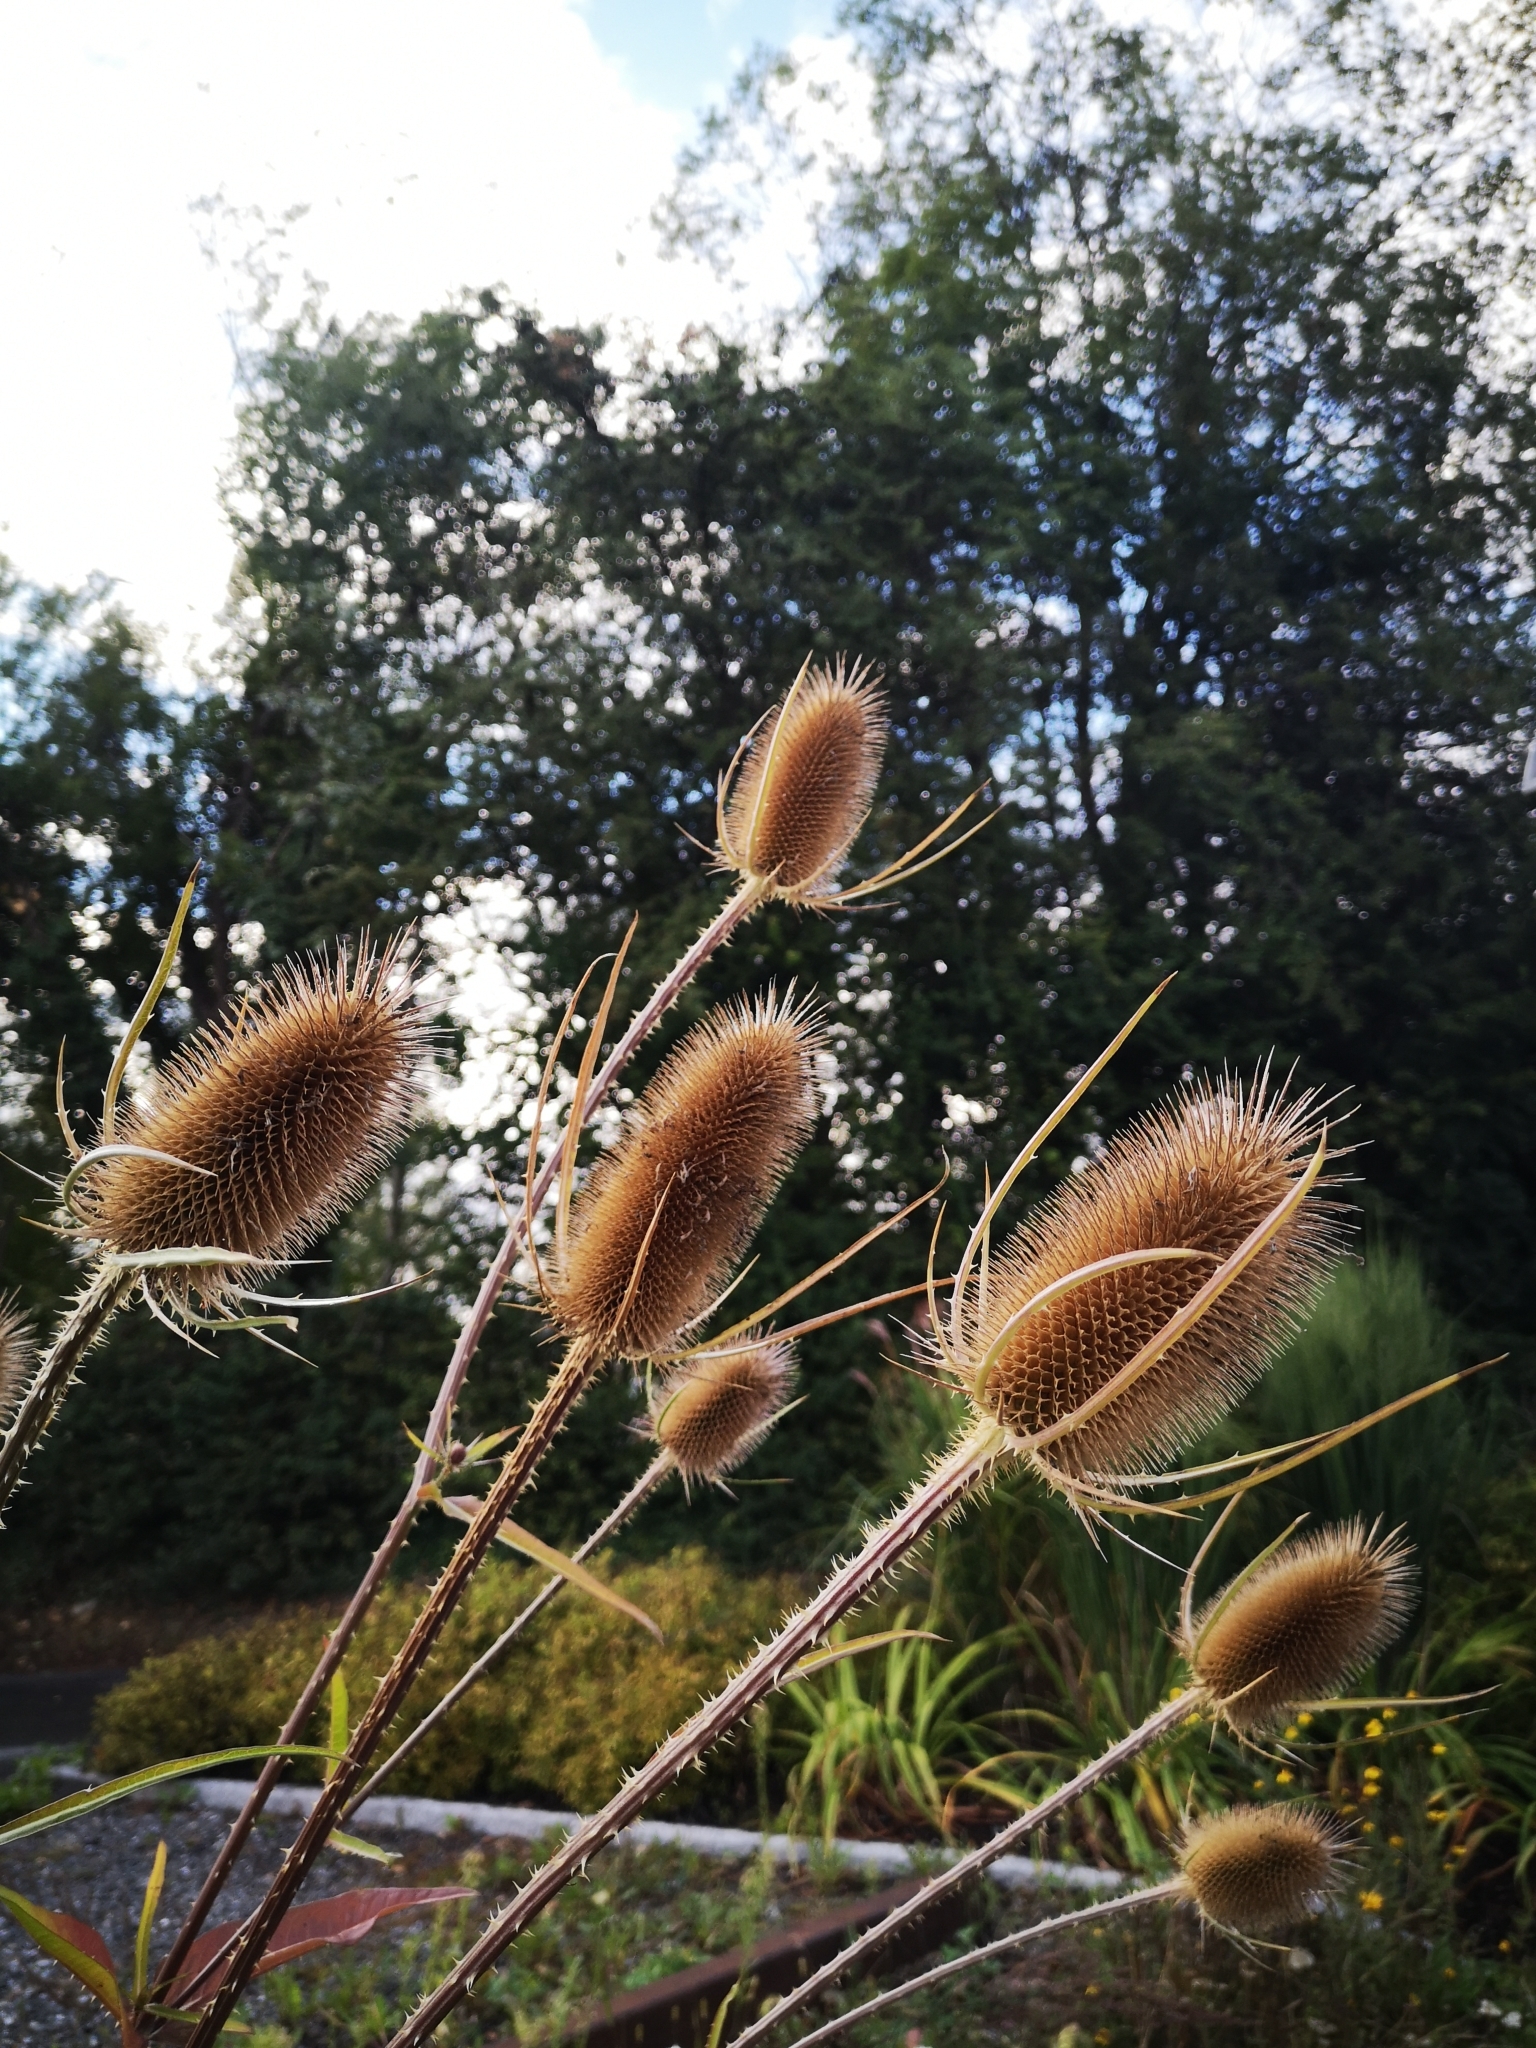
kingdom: Plantae
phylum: Tracheophyta
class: Magnoliopsida
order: Dipsacales
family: Caprifoliaceae
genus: Dipsacus
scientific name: Dipsacus fullonum
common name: Teasel
